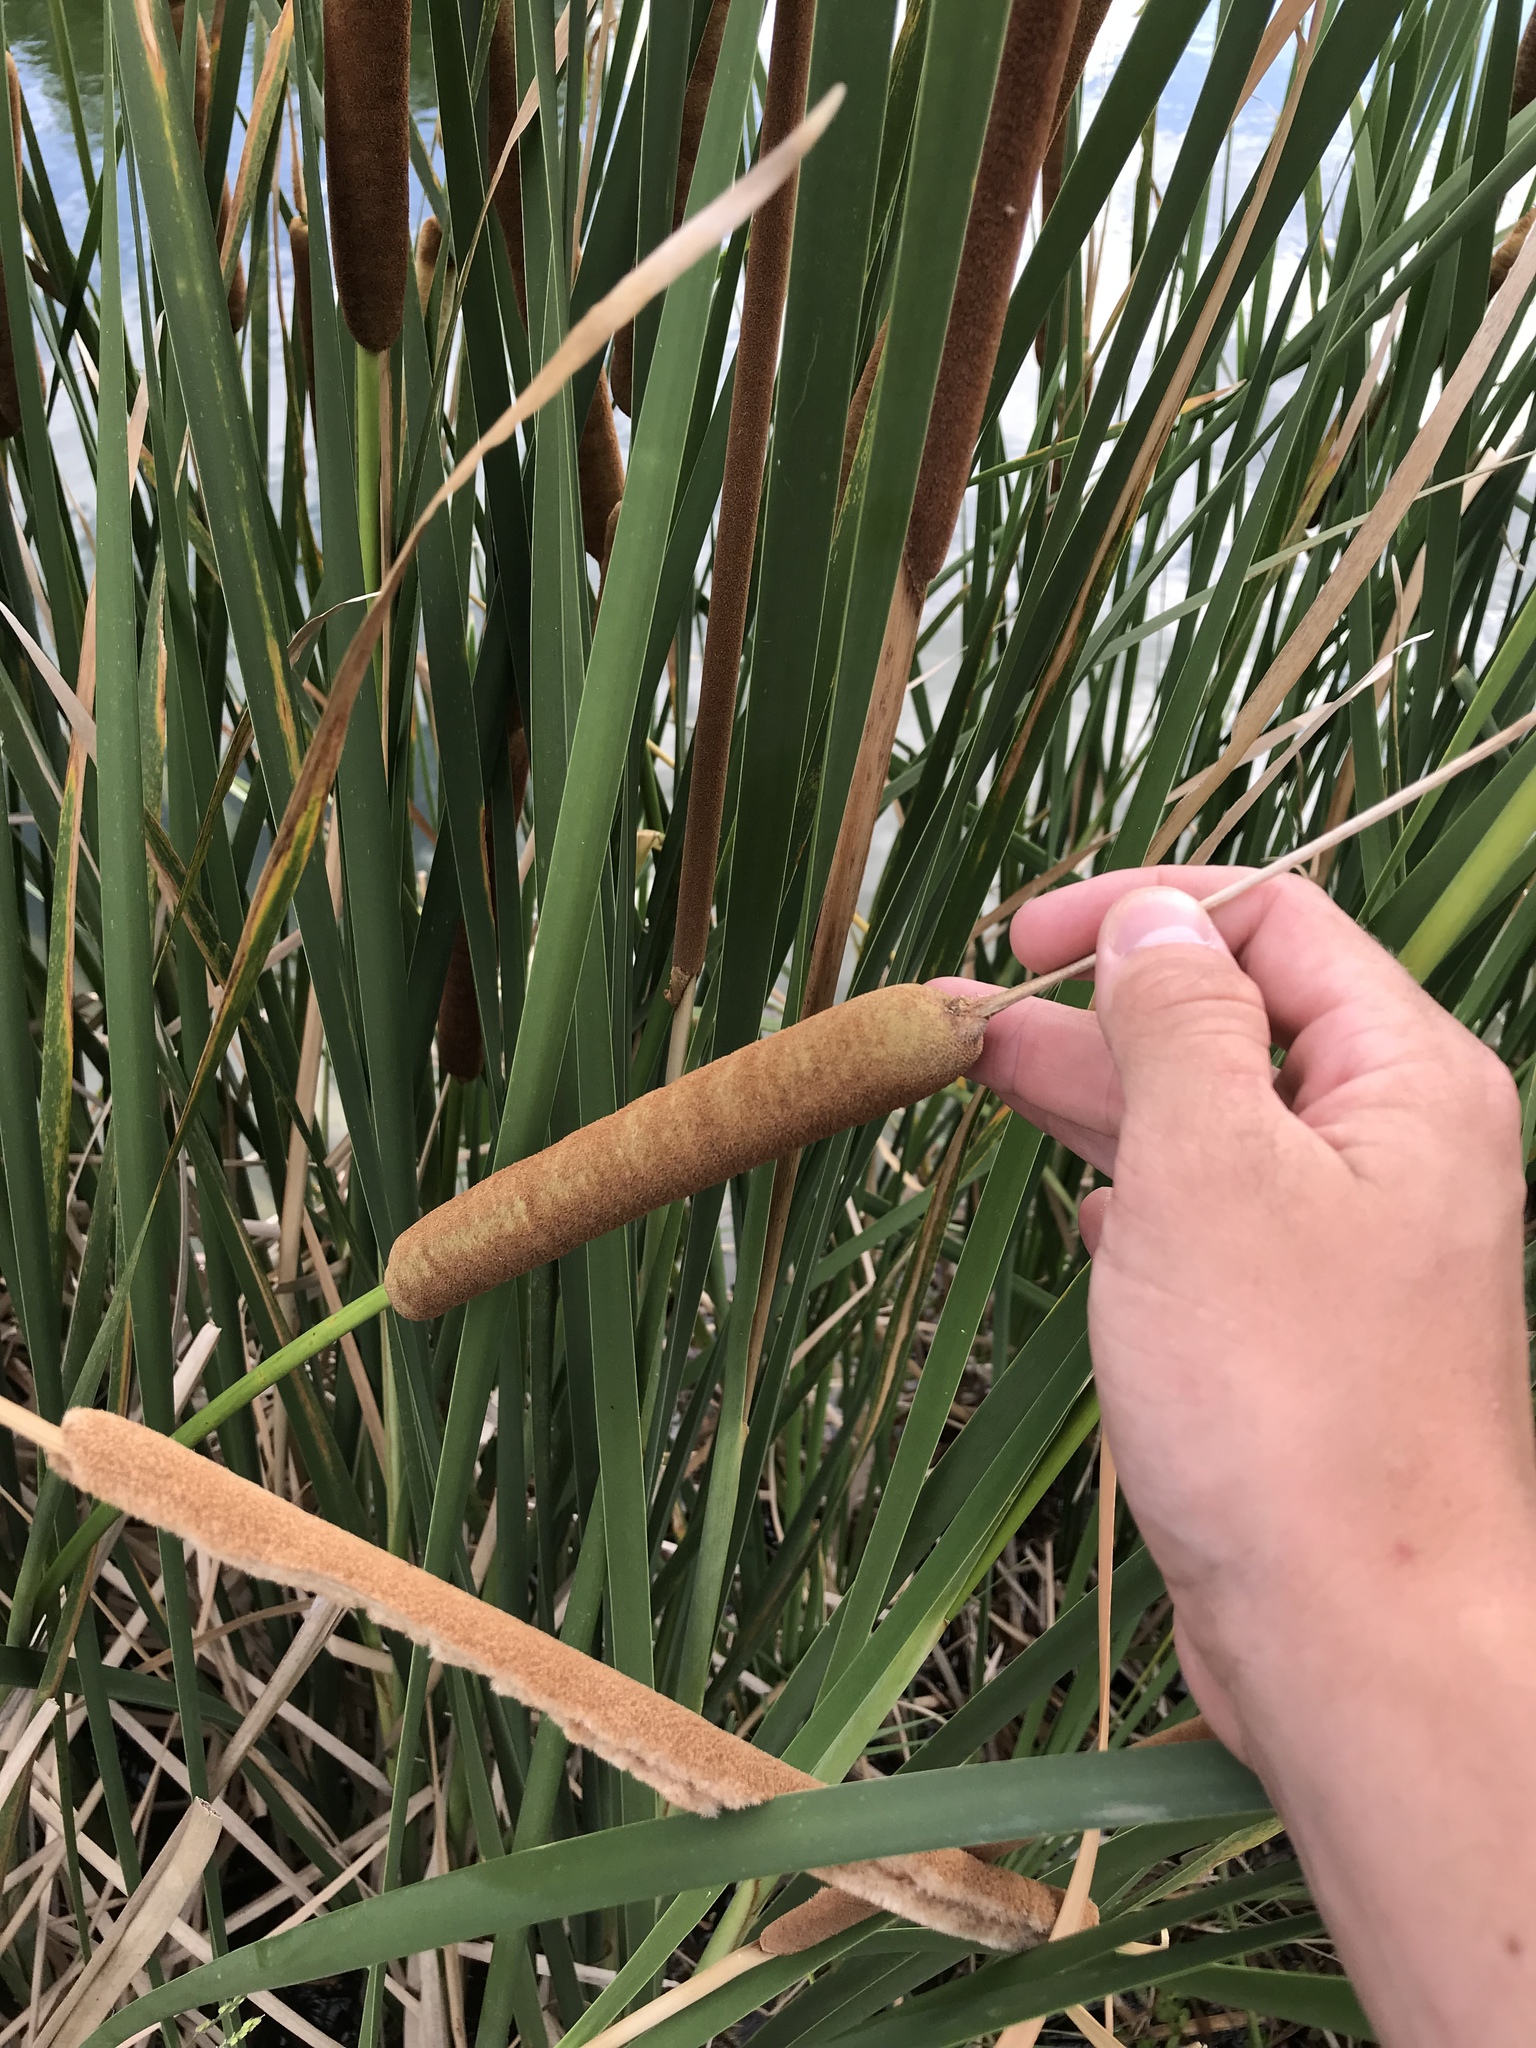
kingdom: Plantae
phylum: Tracheophyta
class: Liliopsida
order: Poales
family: Typhaceae
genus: Typha
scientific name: Typha domingensis
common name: Southern cattail
